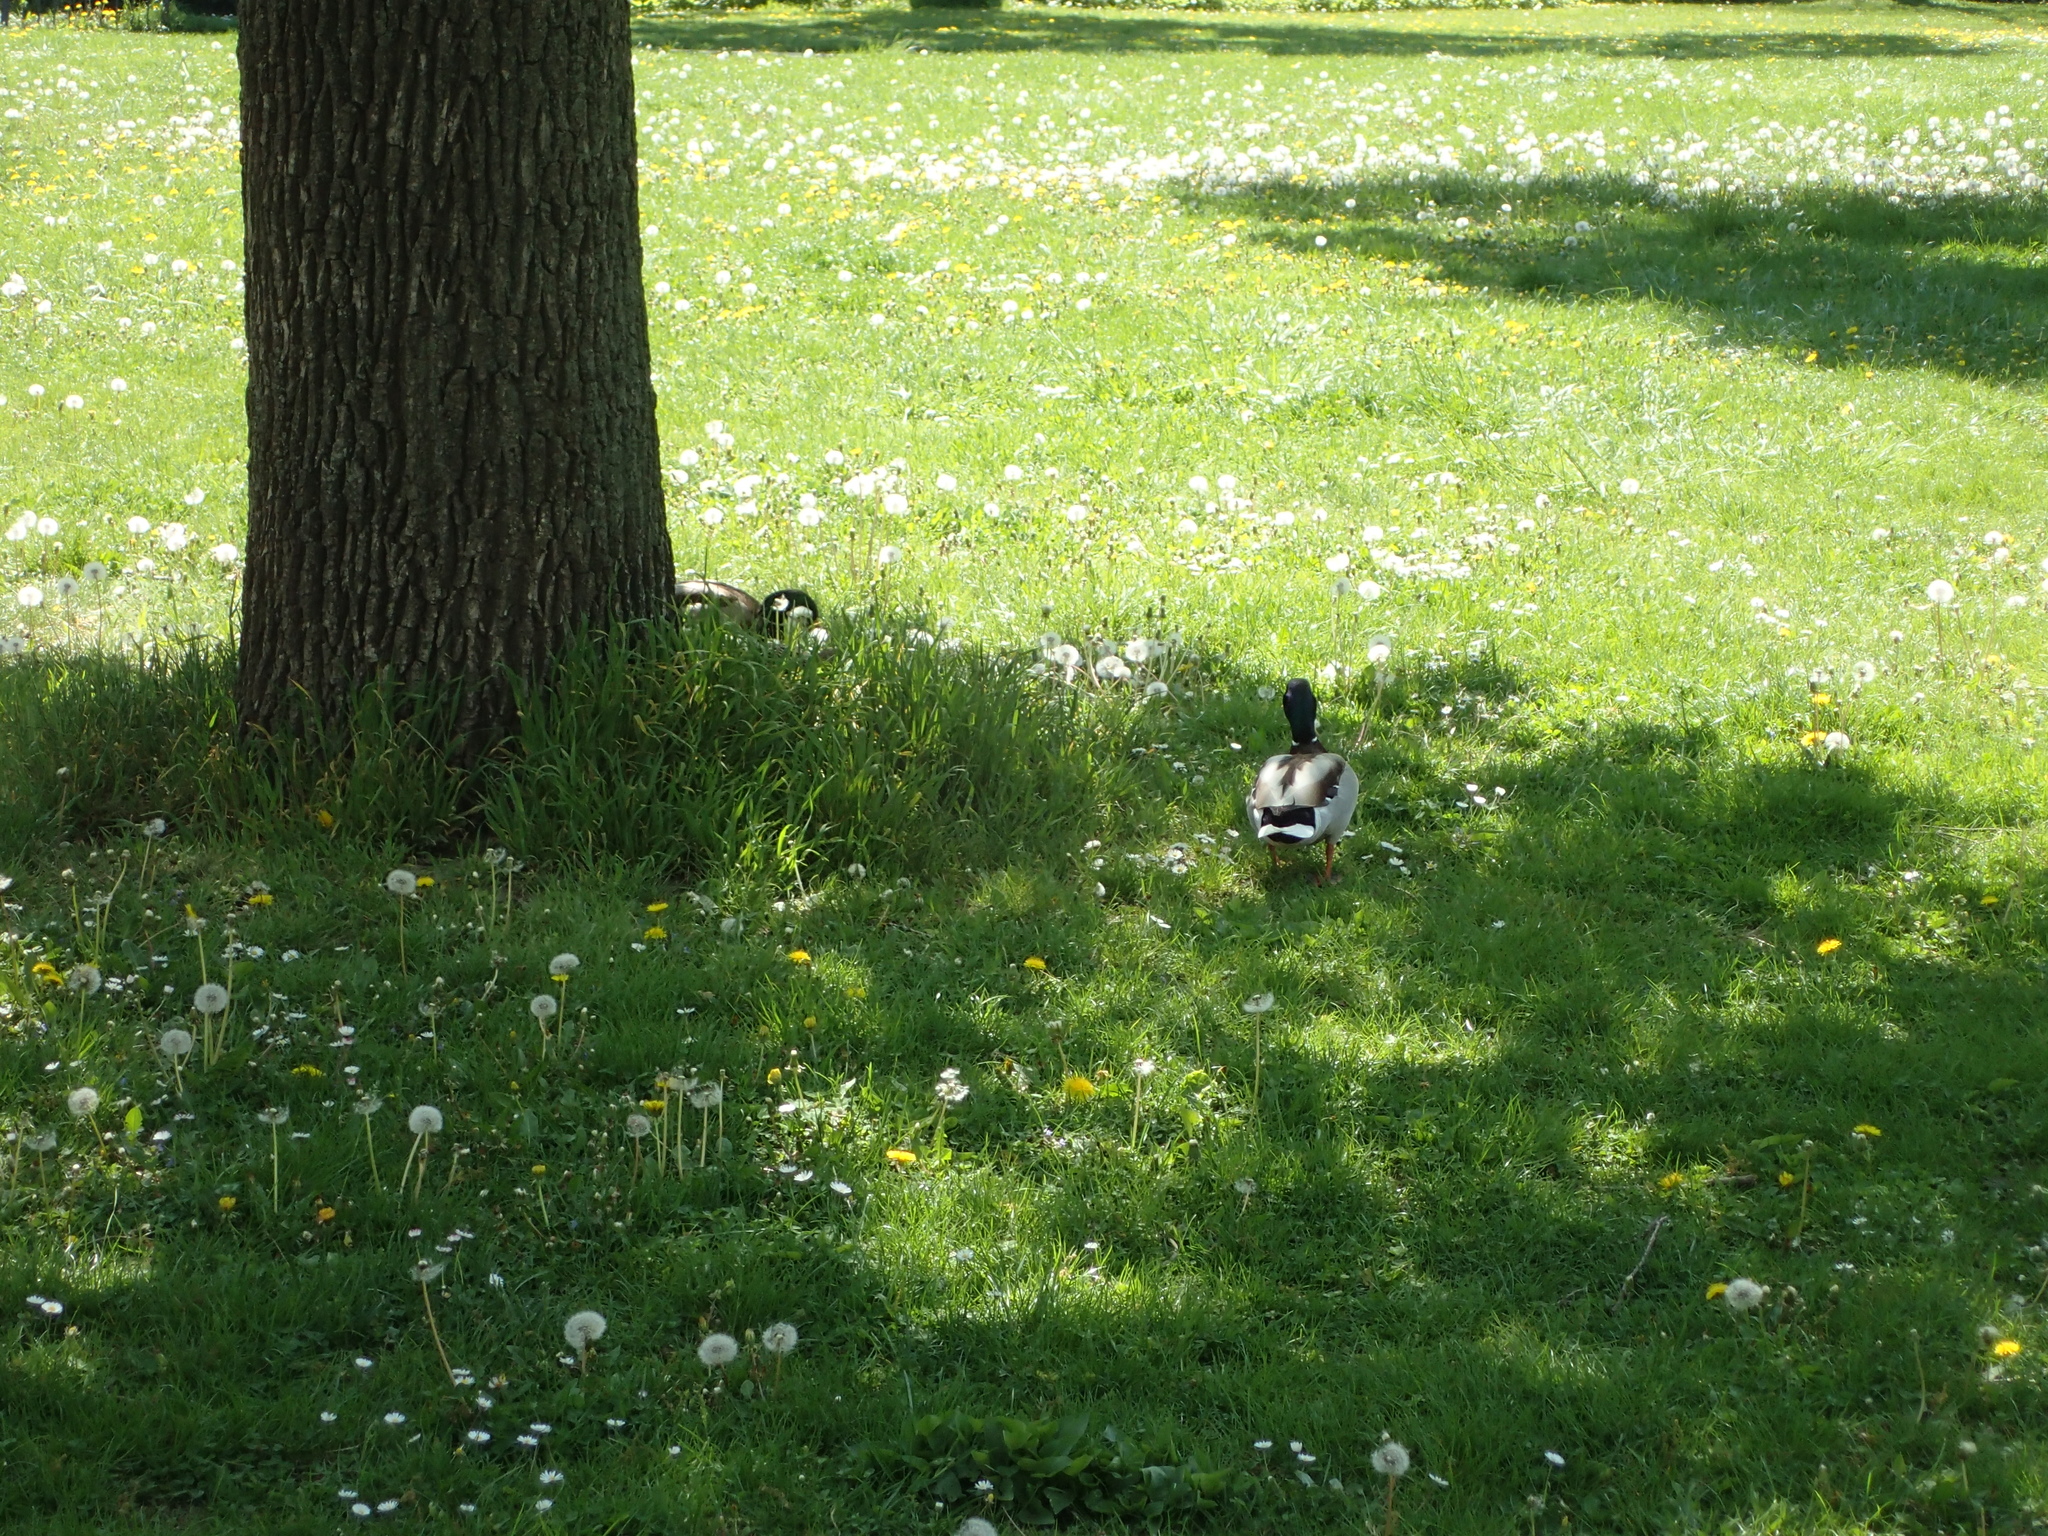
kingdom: Animalia
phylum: Chordata
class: Aves
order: Anseriformes
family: Anatidae
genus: Anas
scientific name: Anas platyrhynchos
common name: Mallard
